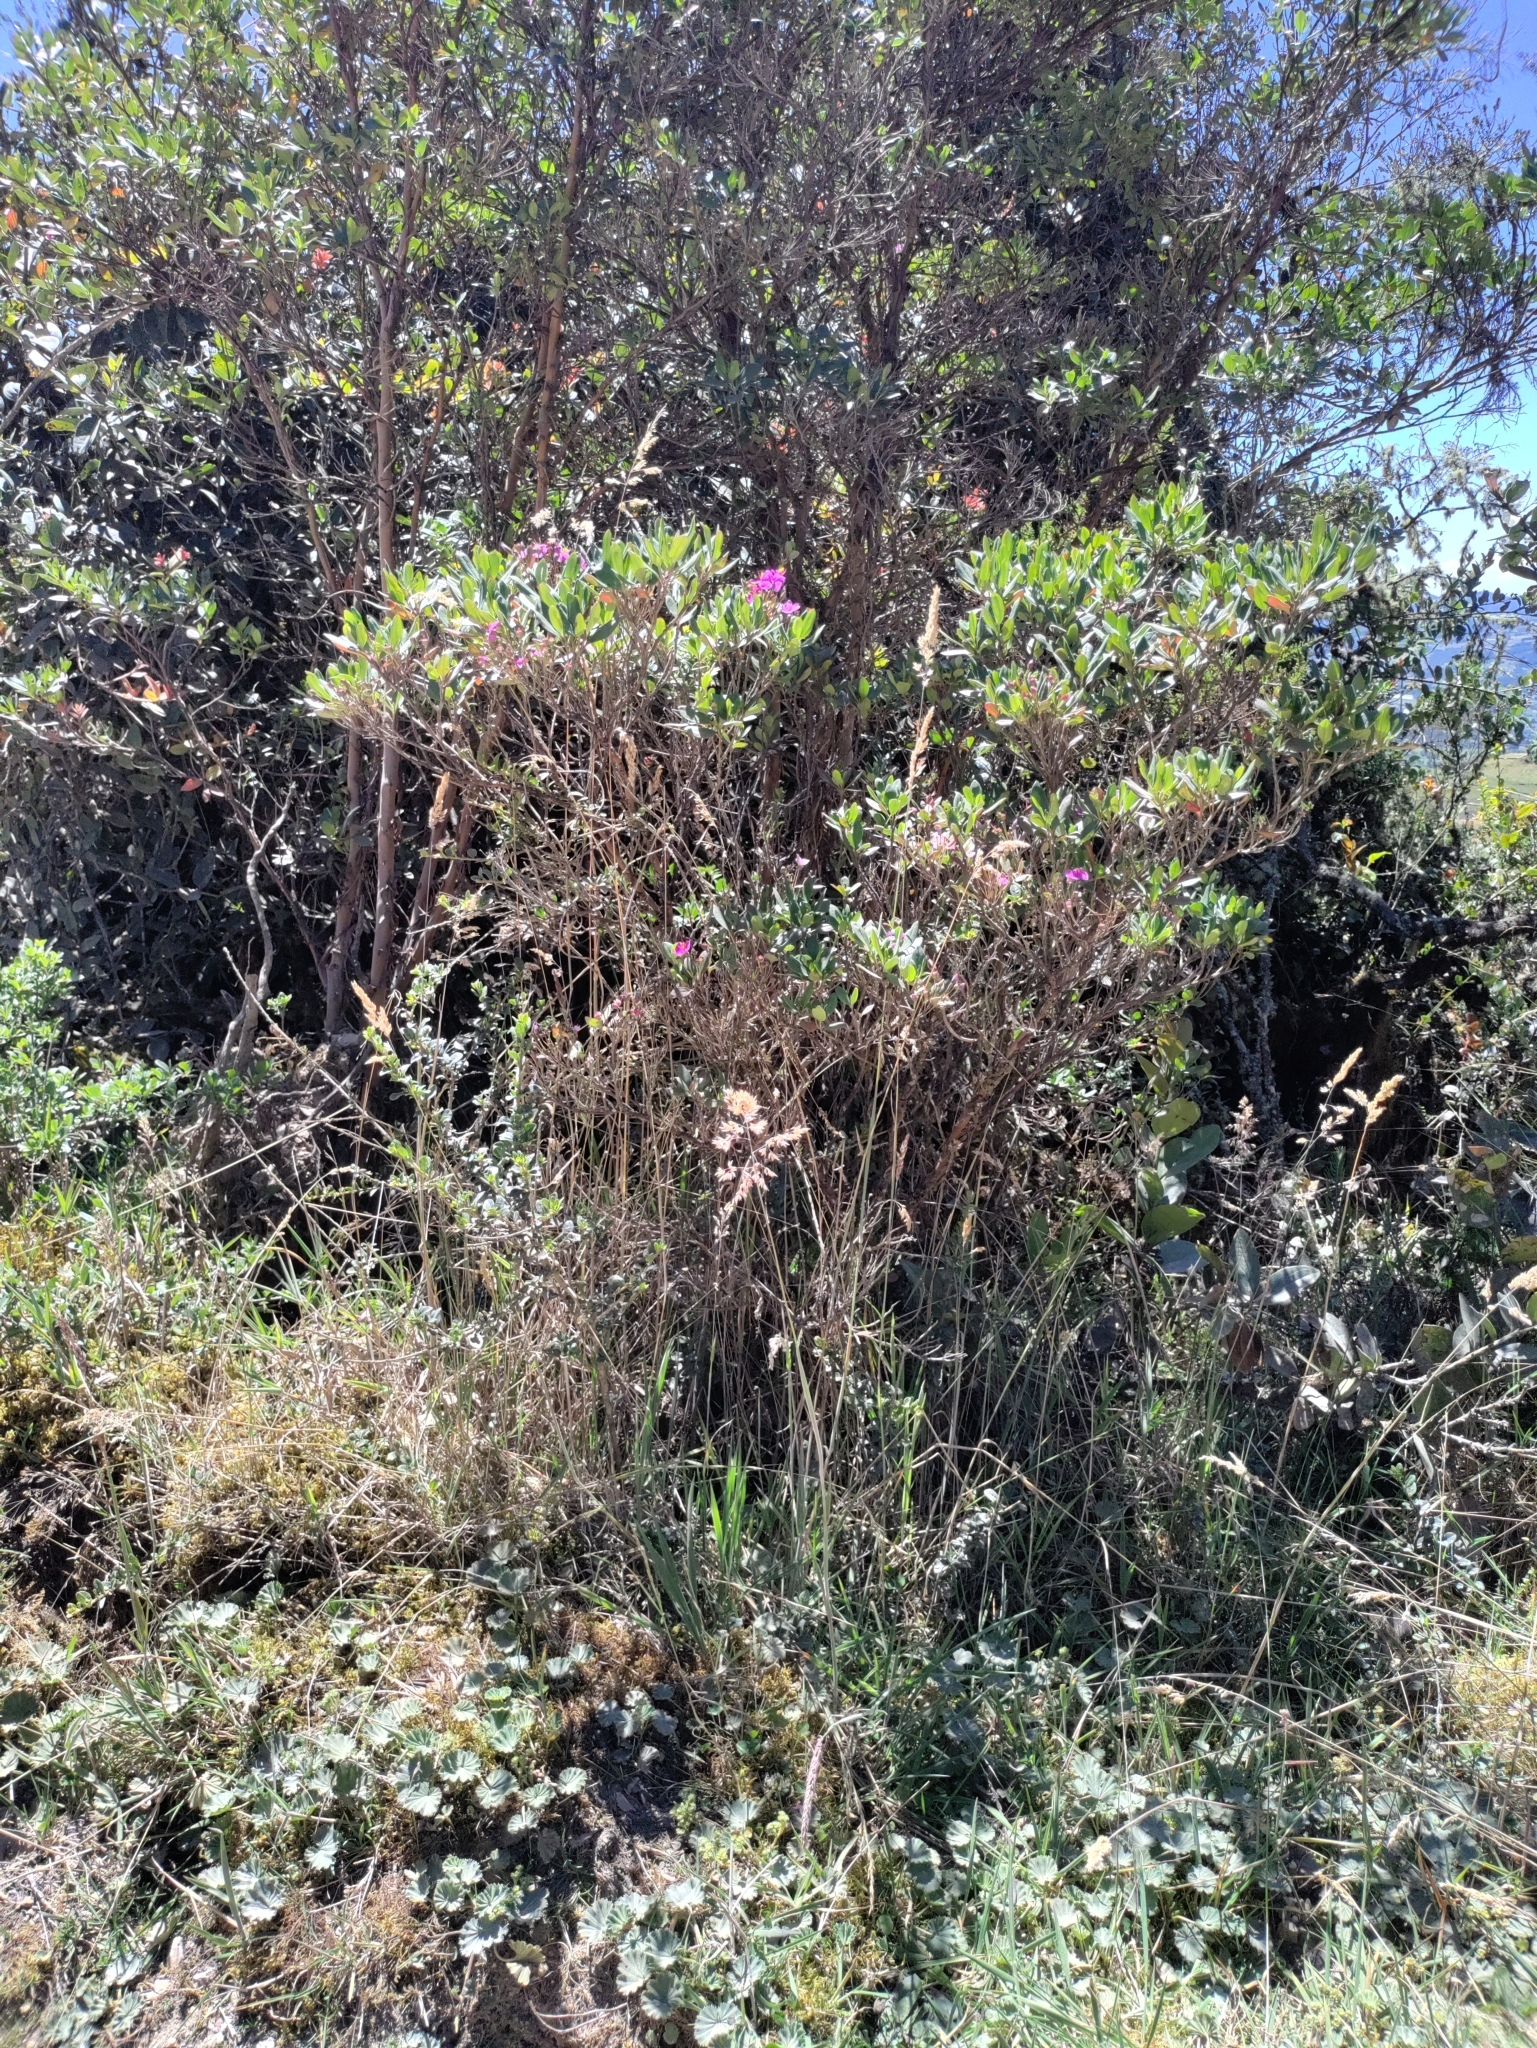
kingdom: Plantae
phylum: Tracheophyta
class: Magnoliopsida
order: Myrtales
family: Melastomataceae
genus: Bucquetia
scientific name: Bucquetia glutinosa
